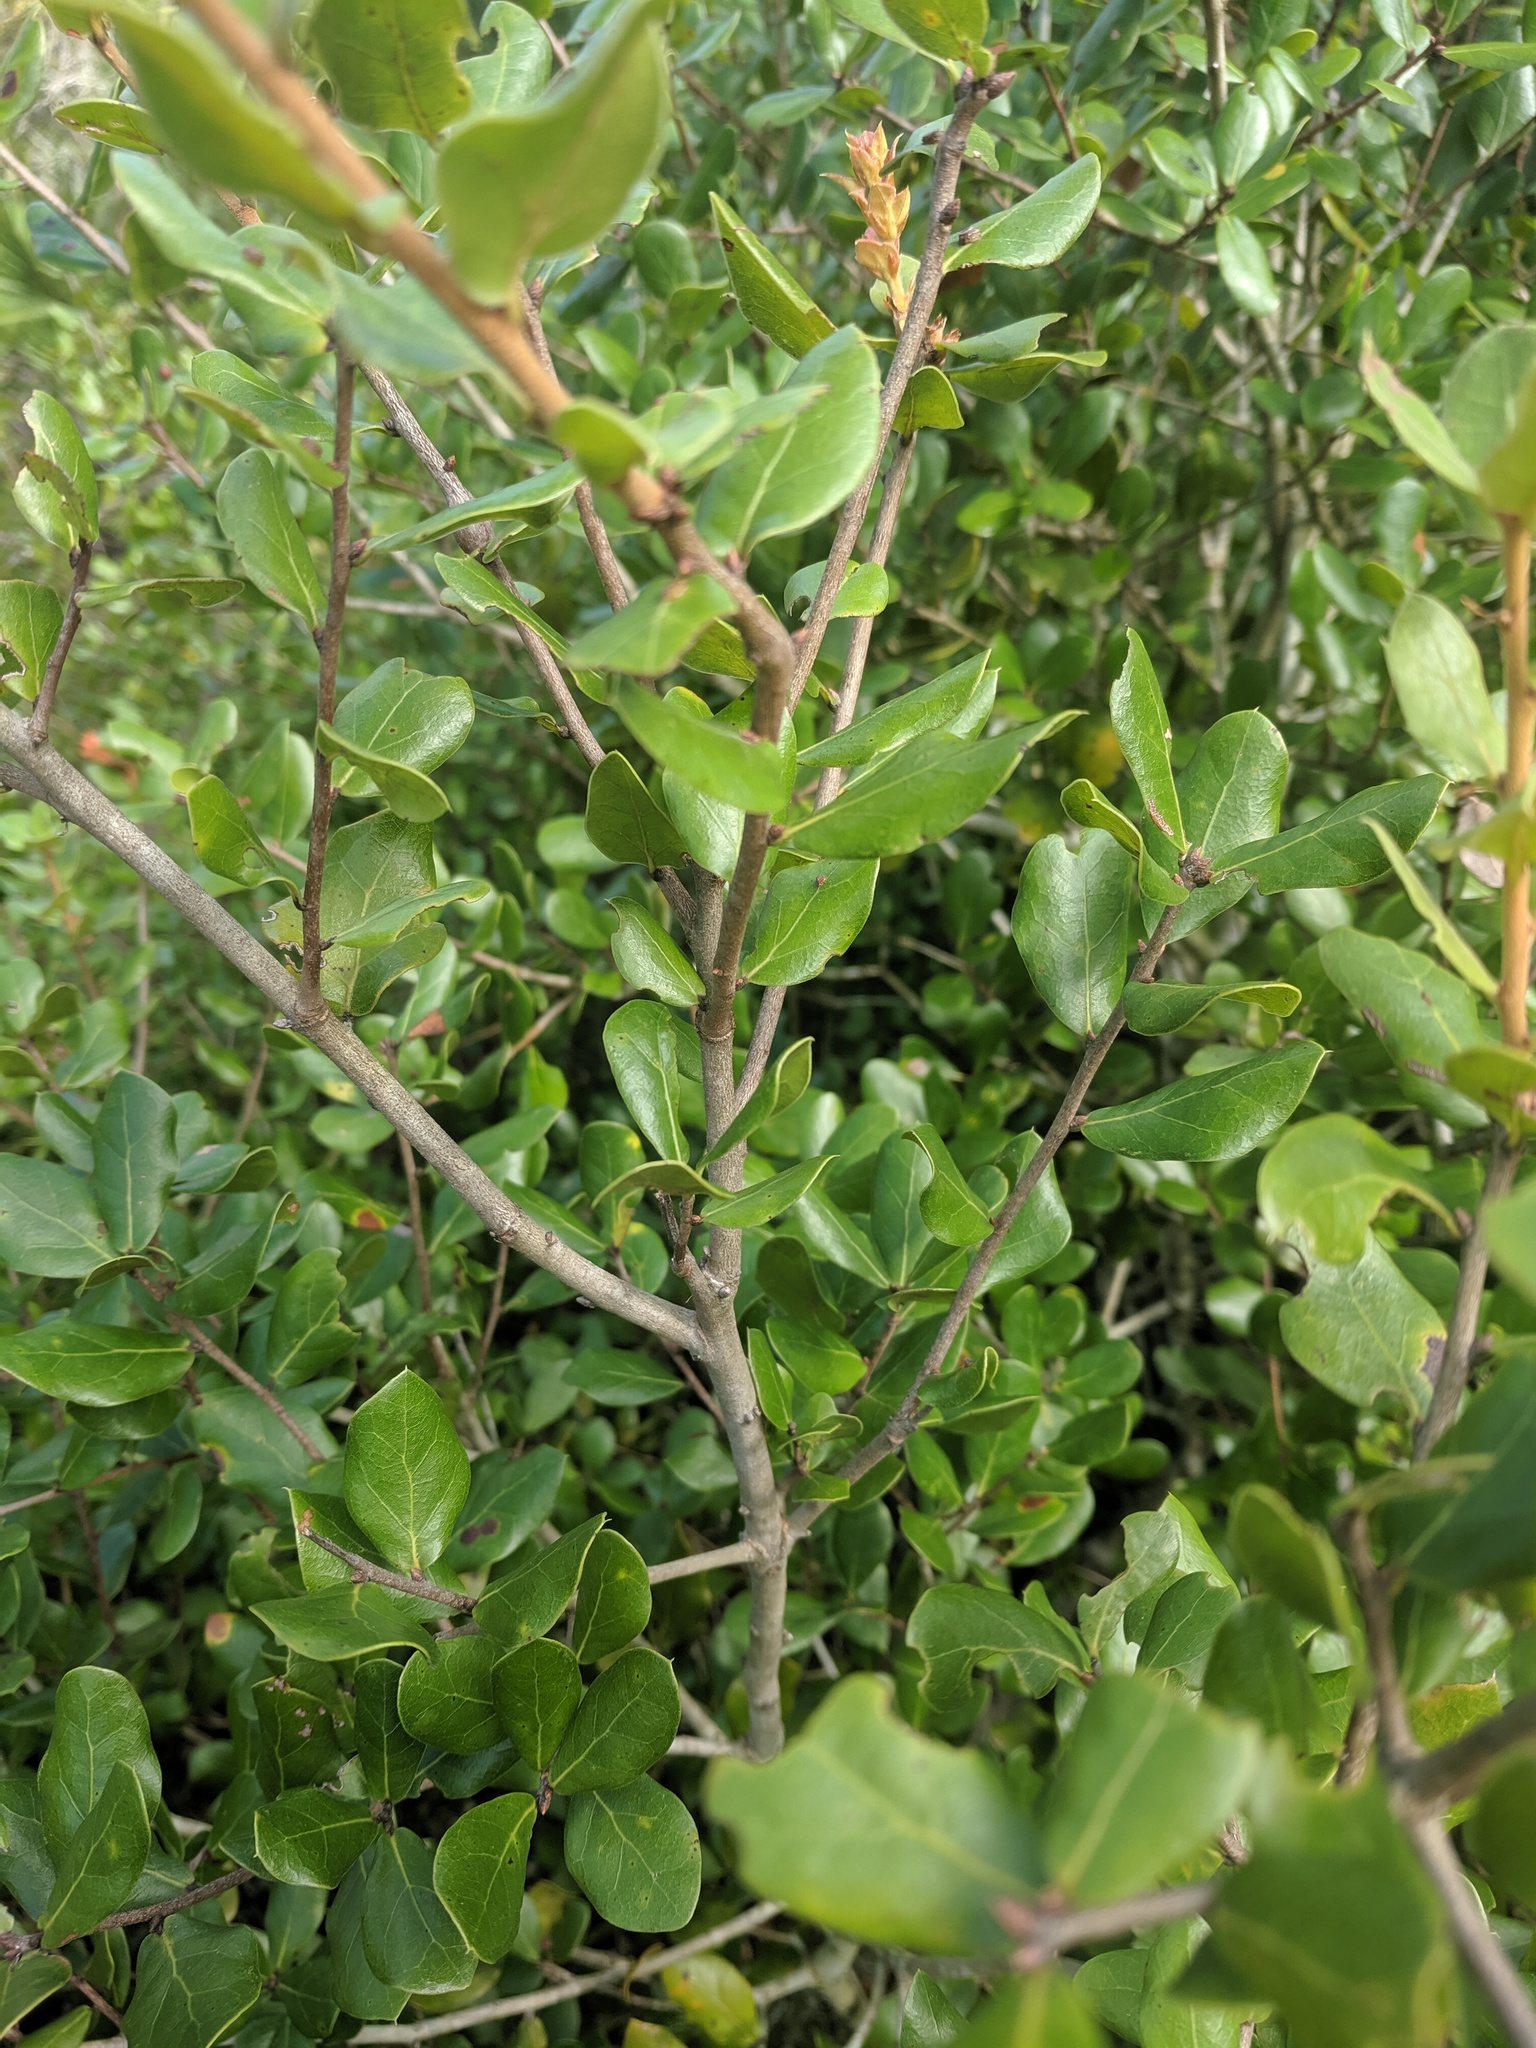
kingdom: Plantae
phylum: Tracheophyta
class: Magnoliopsida
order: Fagales
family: Fagaceae
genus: Quercus
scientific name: Quercus myrtifolia
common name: Myrtle oak
